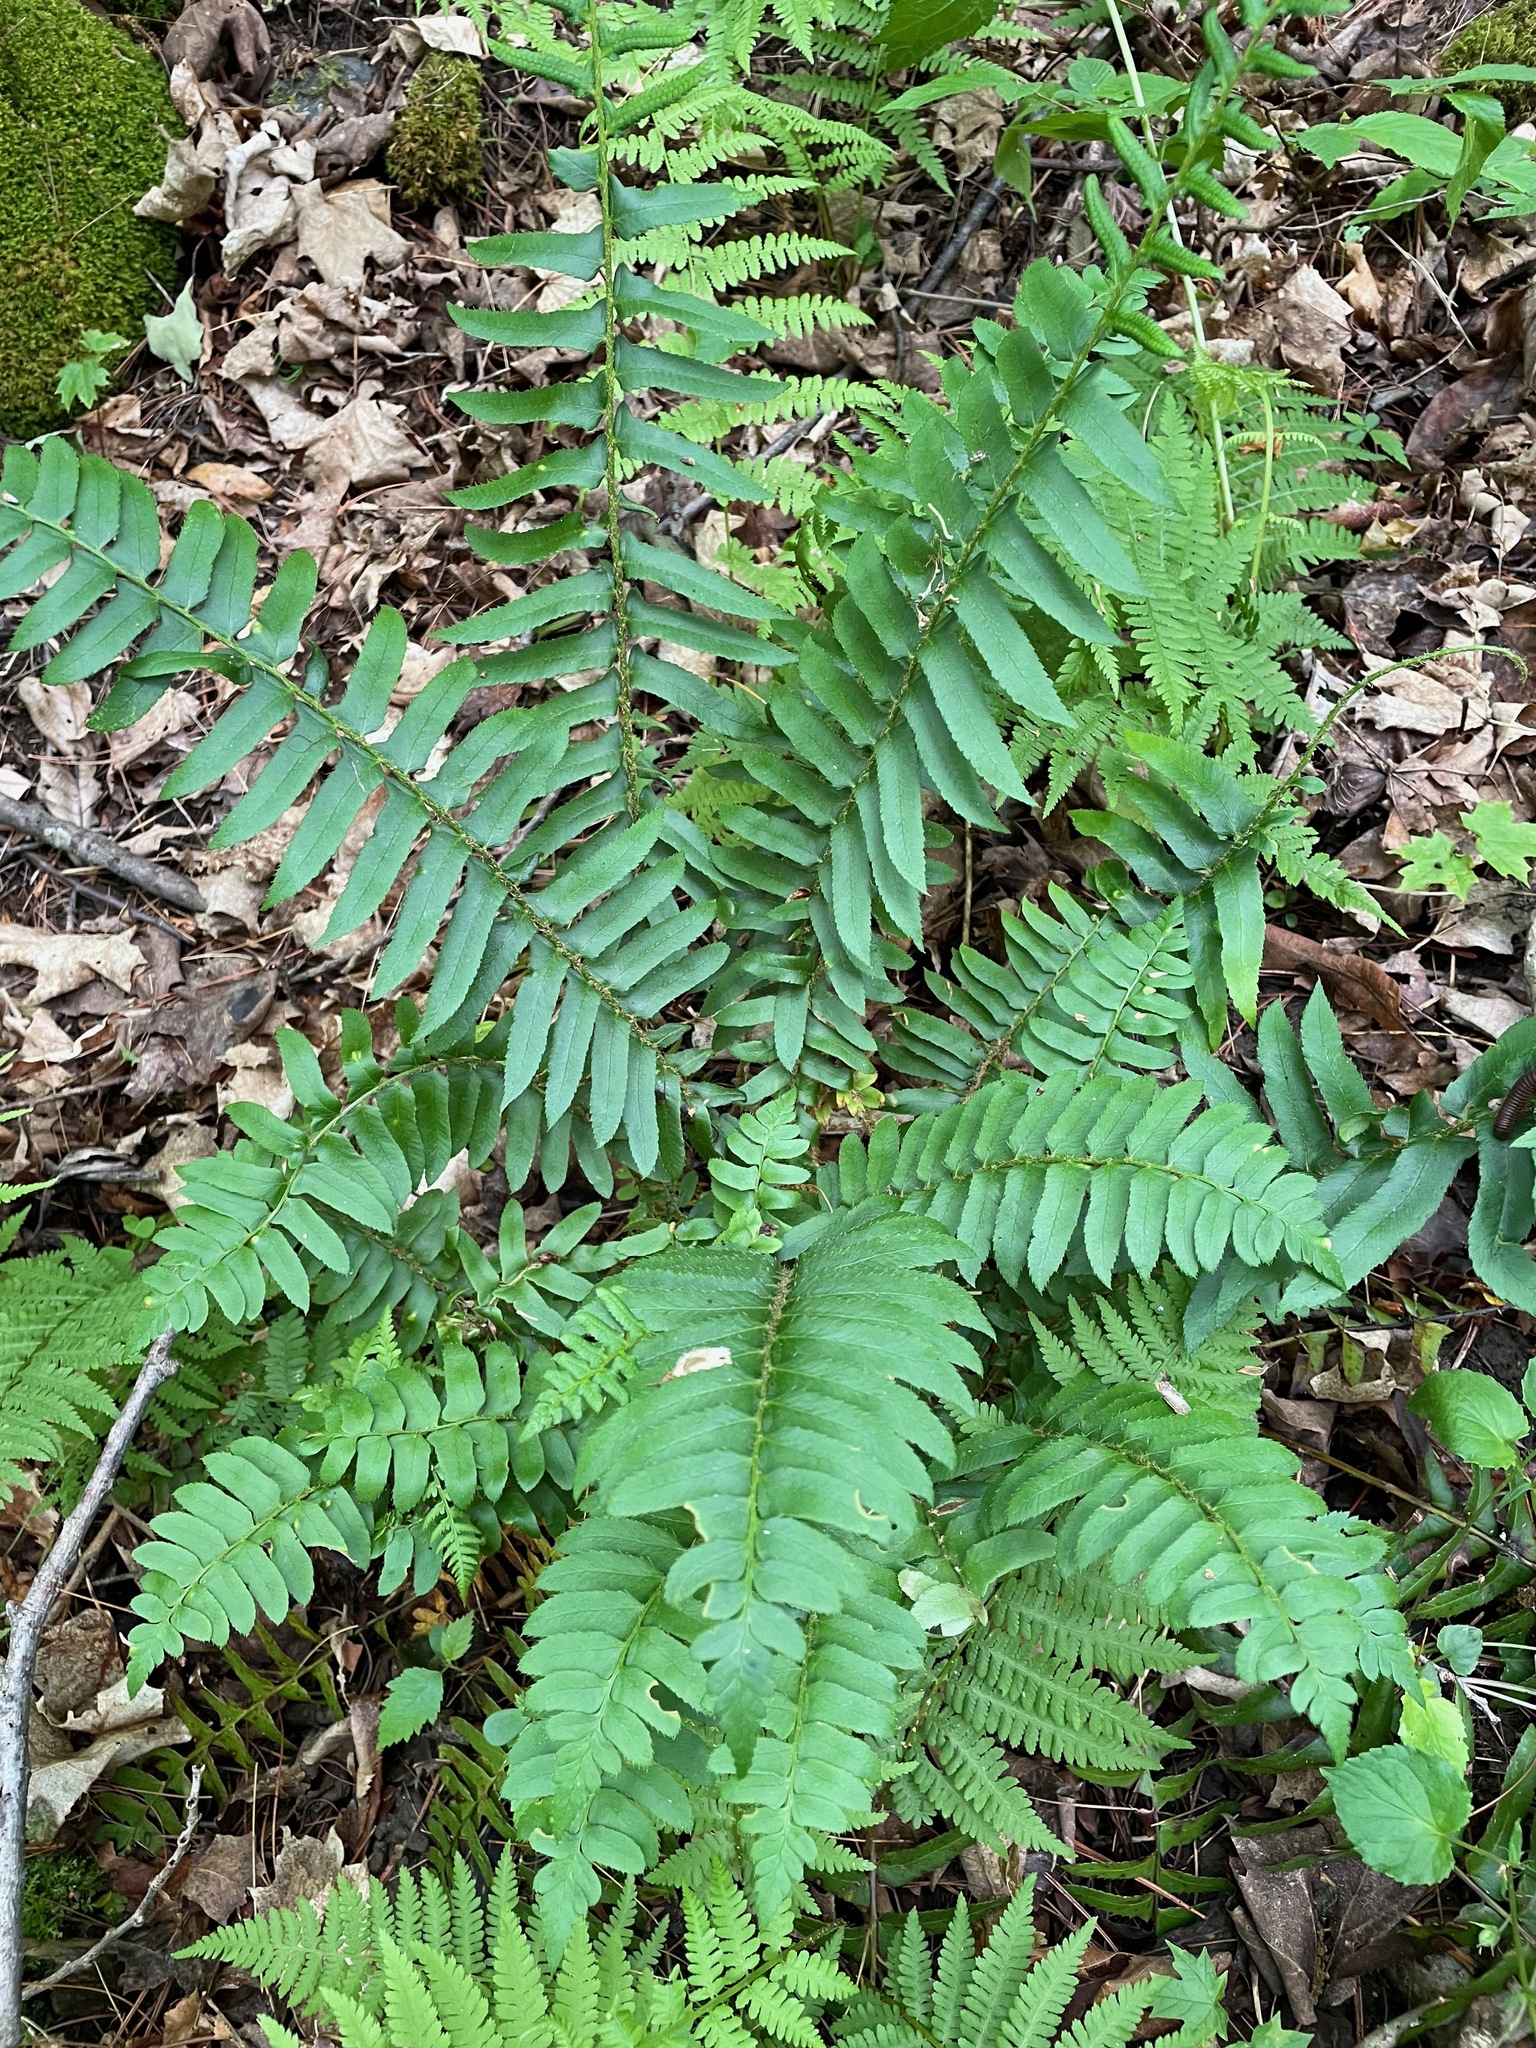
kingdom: Plantae
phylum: Tracheophyta
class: Polypodiopsida
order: Polypodiales
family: Dryopteridaceae
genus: Polystichum
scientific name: Polystichum acrostichoides
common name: Christmas fern
